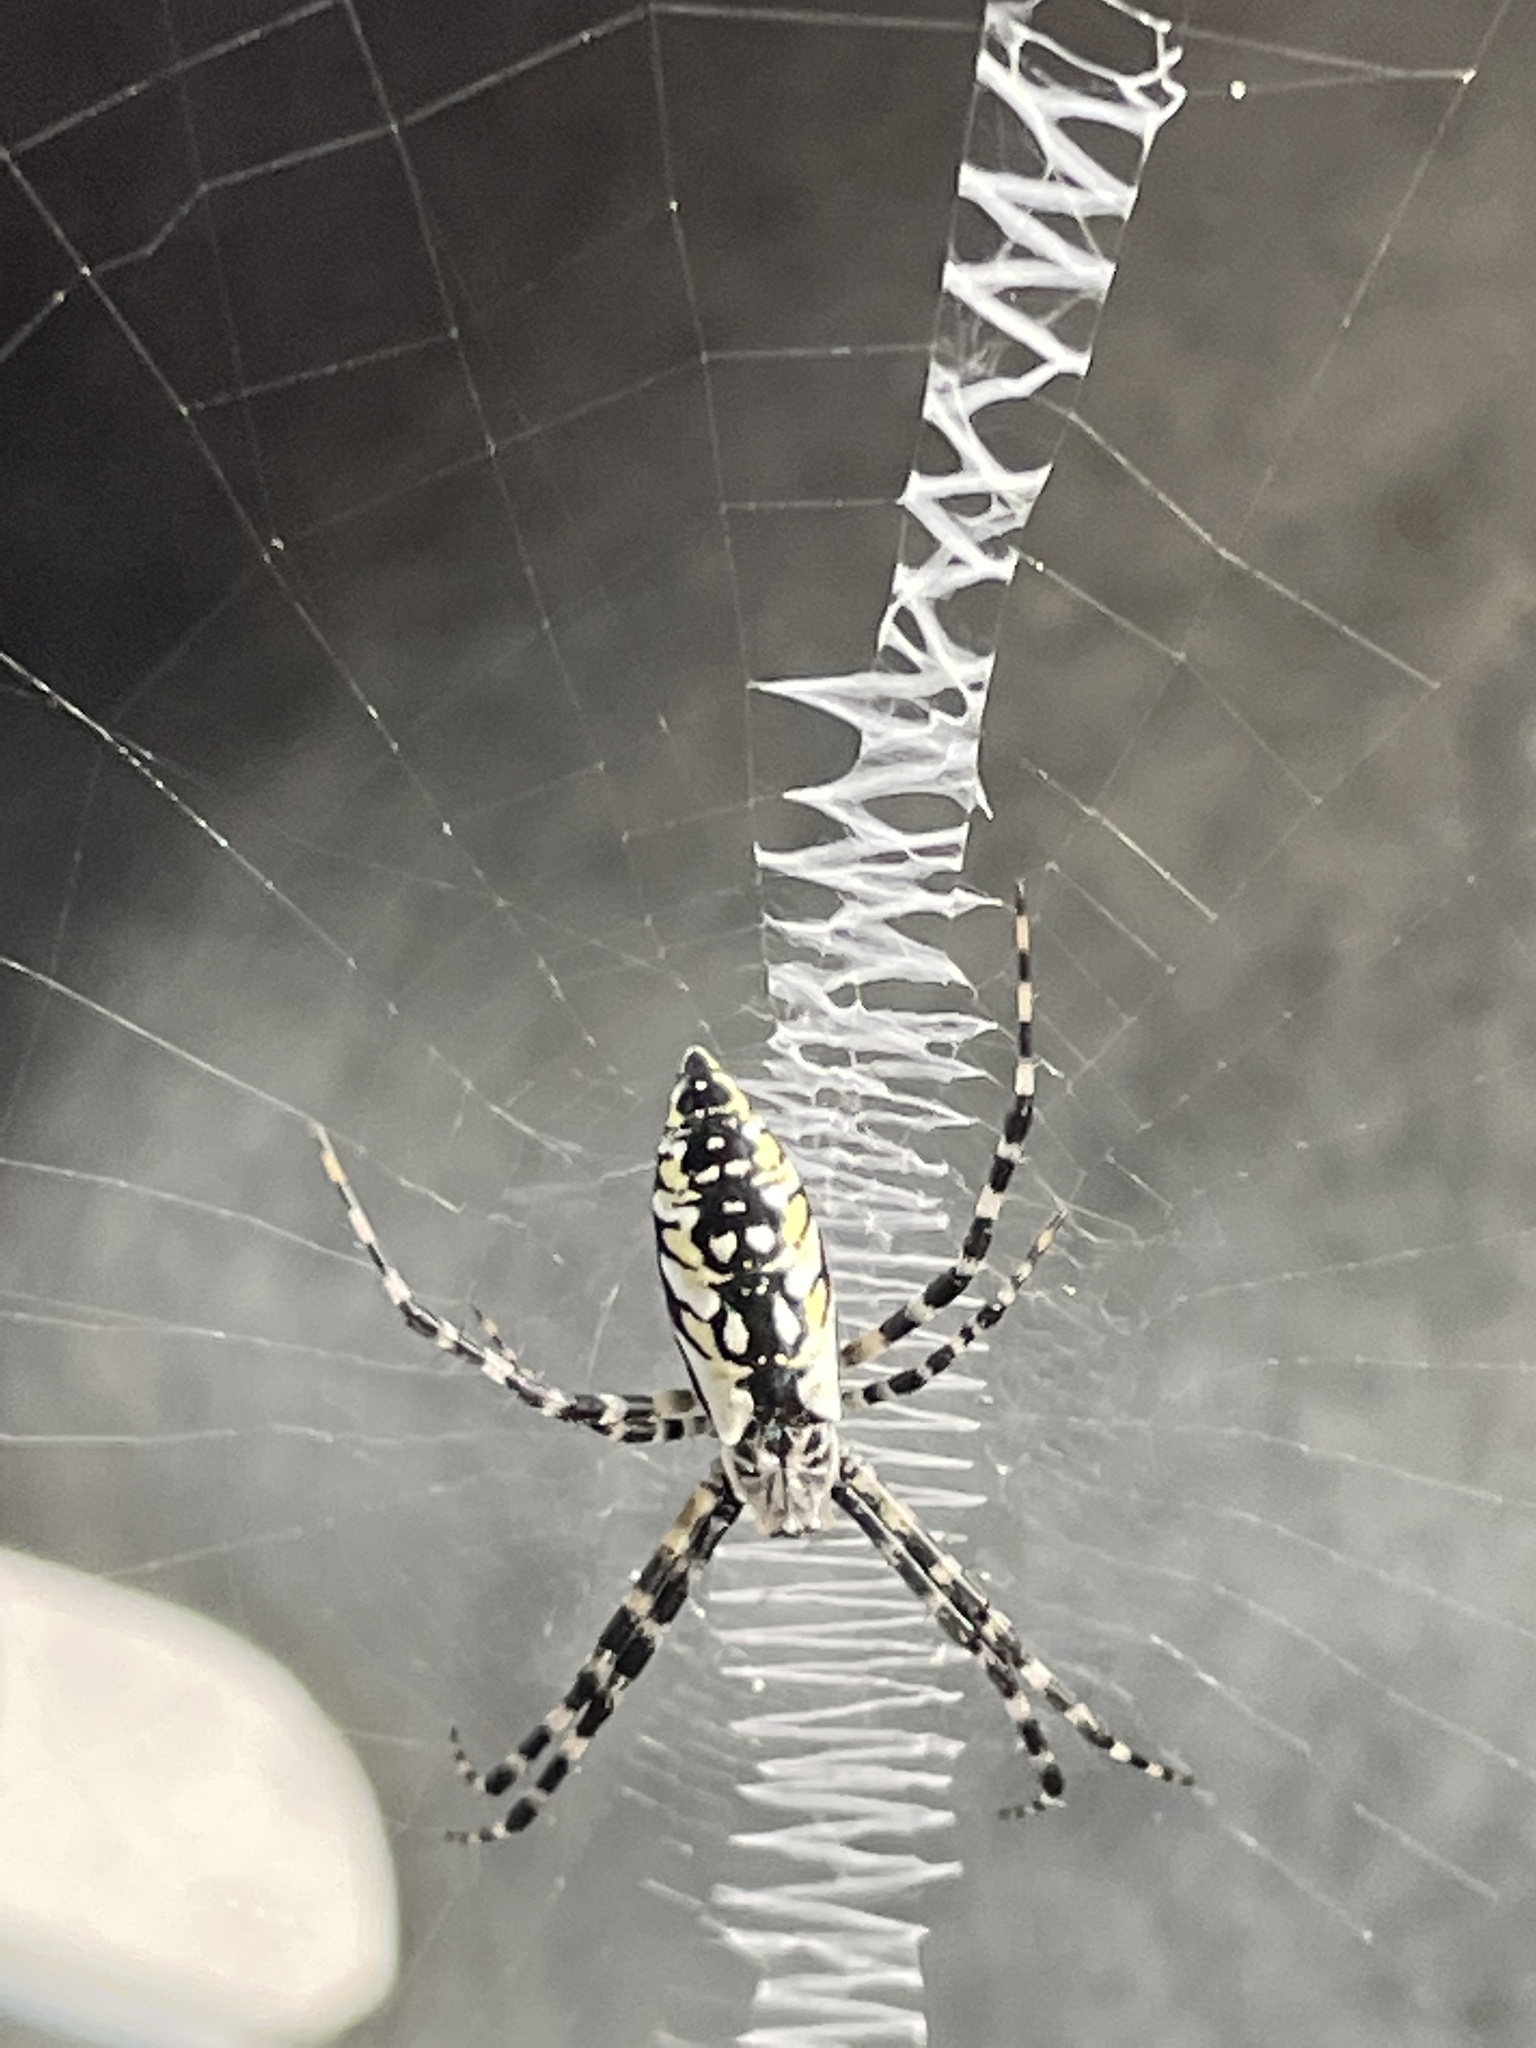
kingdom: Animalia
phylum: Arthropoda
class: Arachnida
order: Araneae
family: Araneidae
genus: Argiope
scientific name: Argiope aurantia
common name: Orb weavers
